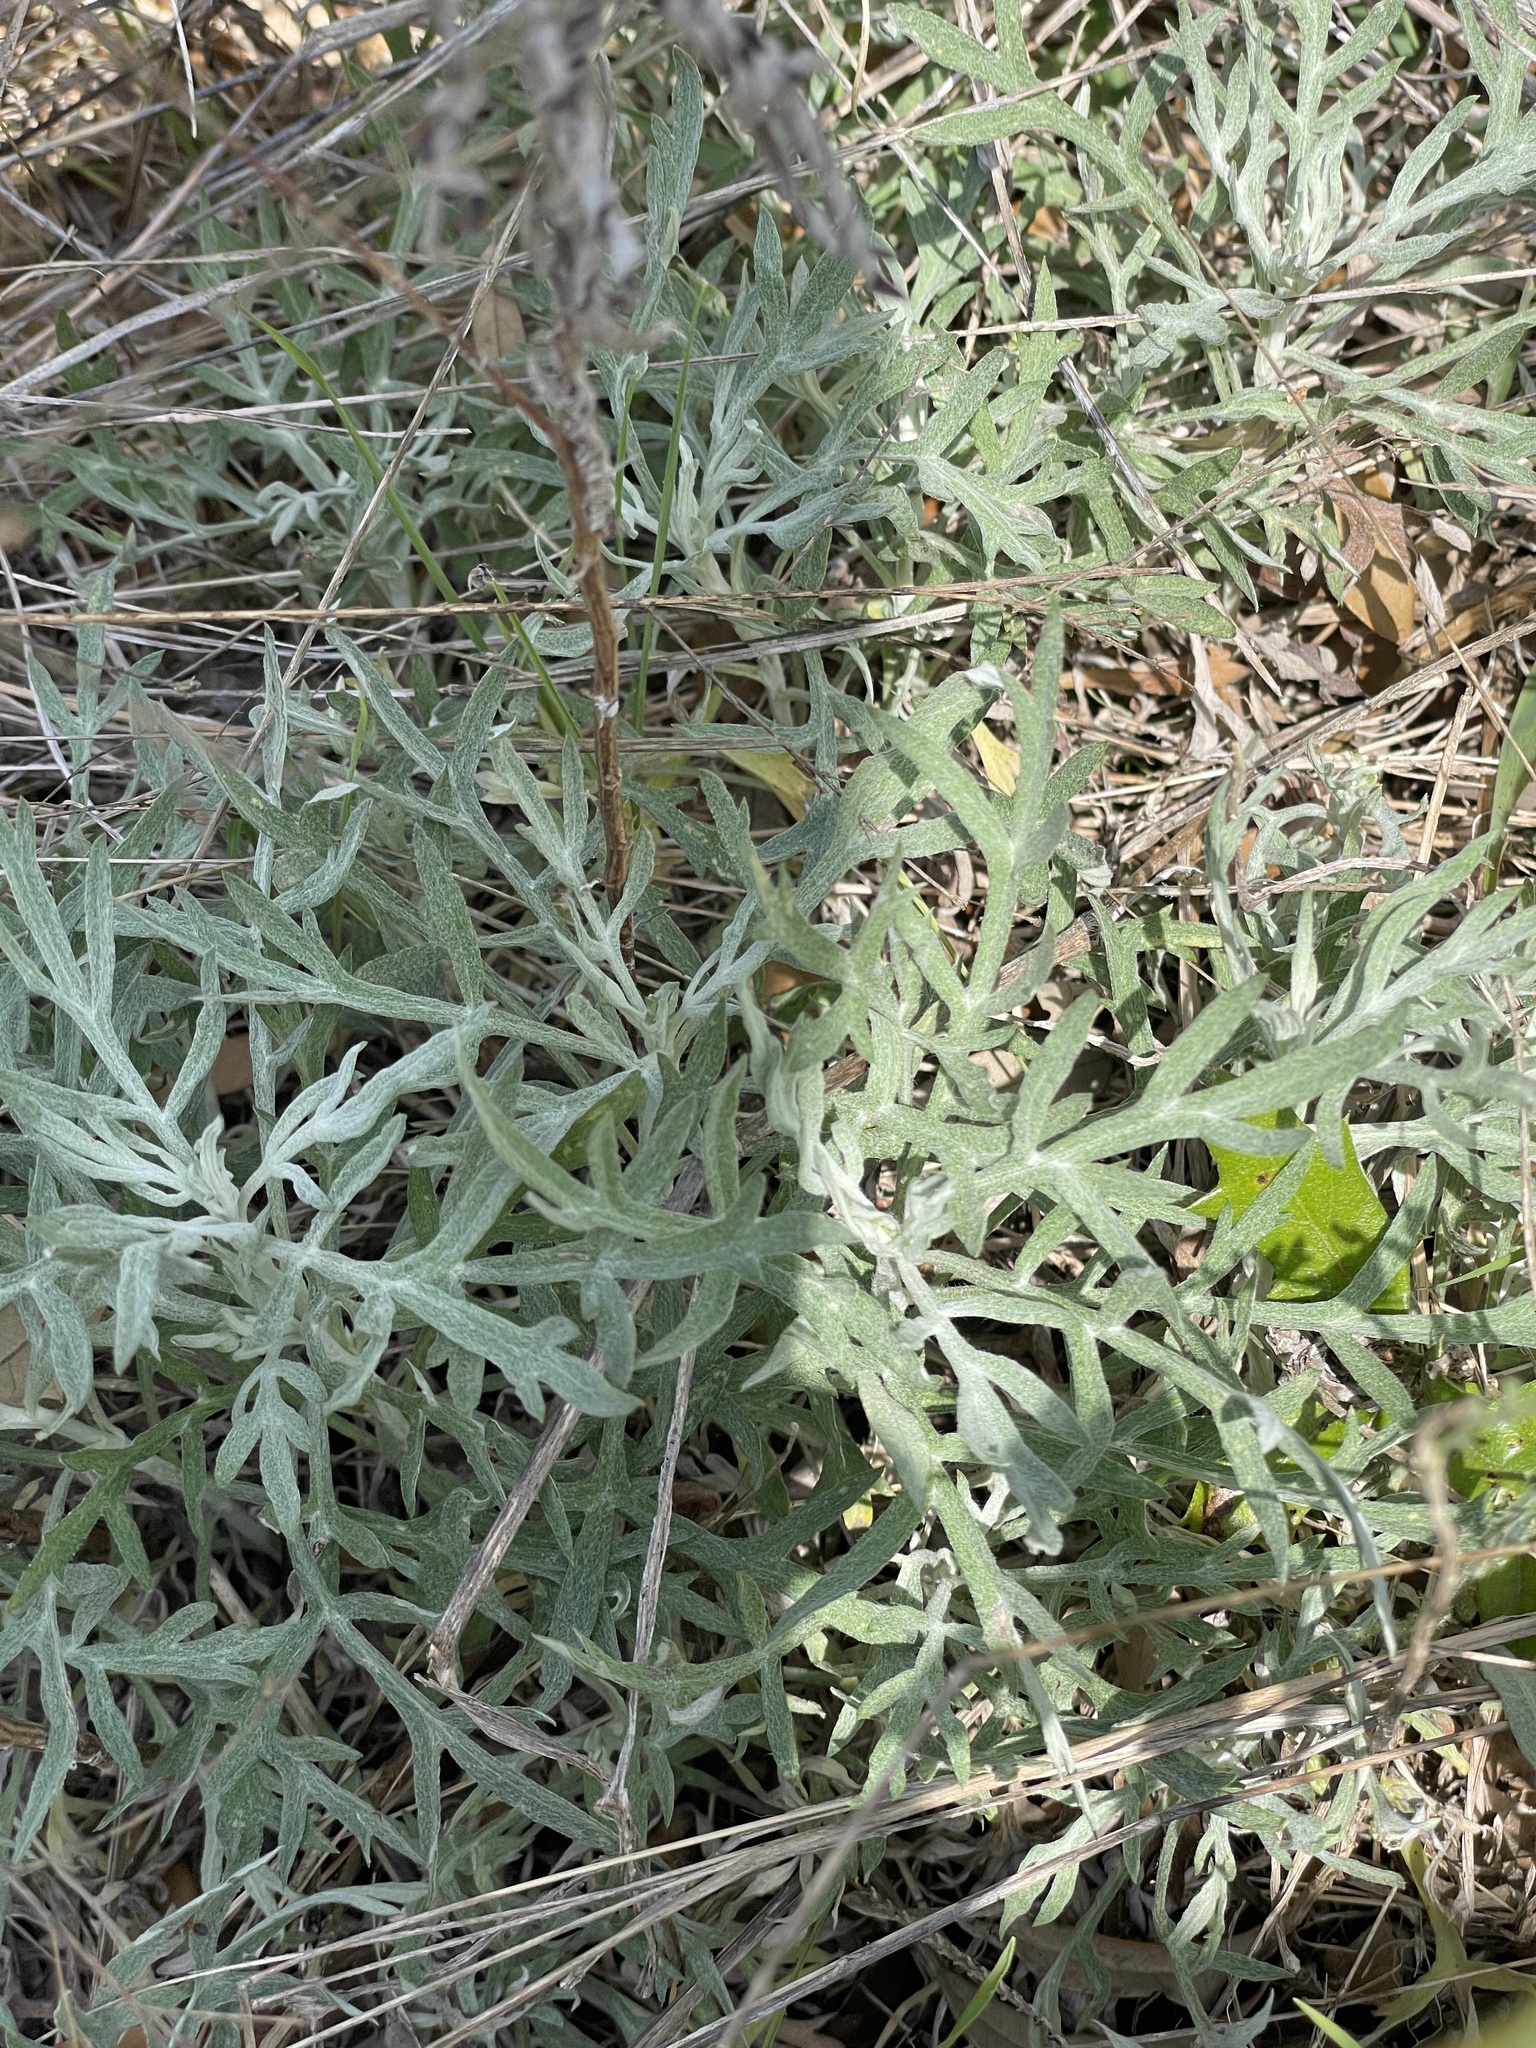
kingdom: Plantae
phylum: Tracheophyta
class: Magnoliopsida
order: Asterales
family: Asteraceae
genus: Artemisia
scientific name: Artemisia ludoviciana
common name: Western mugwort
